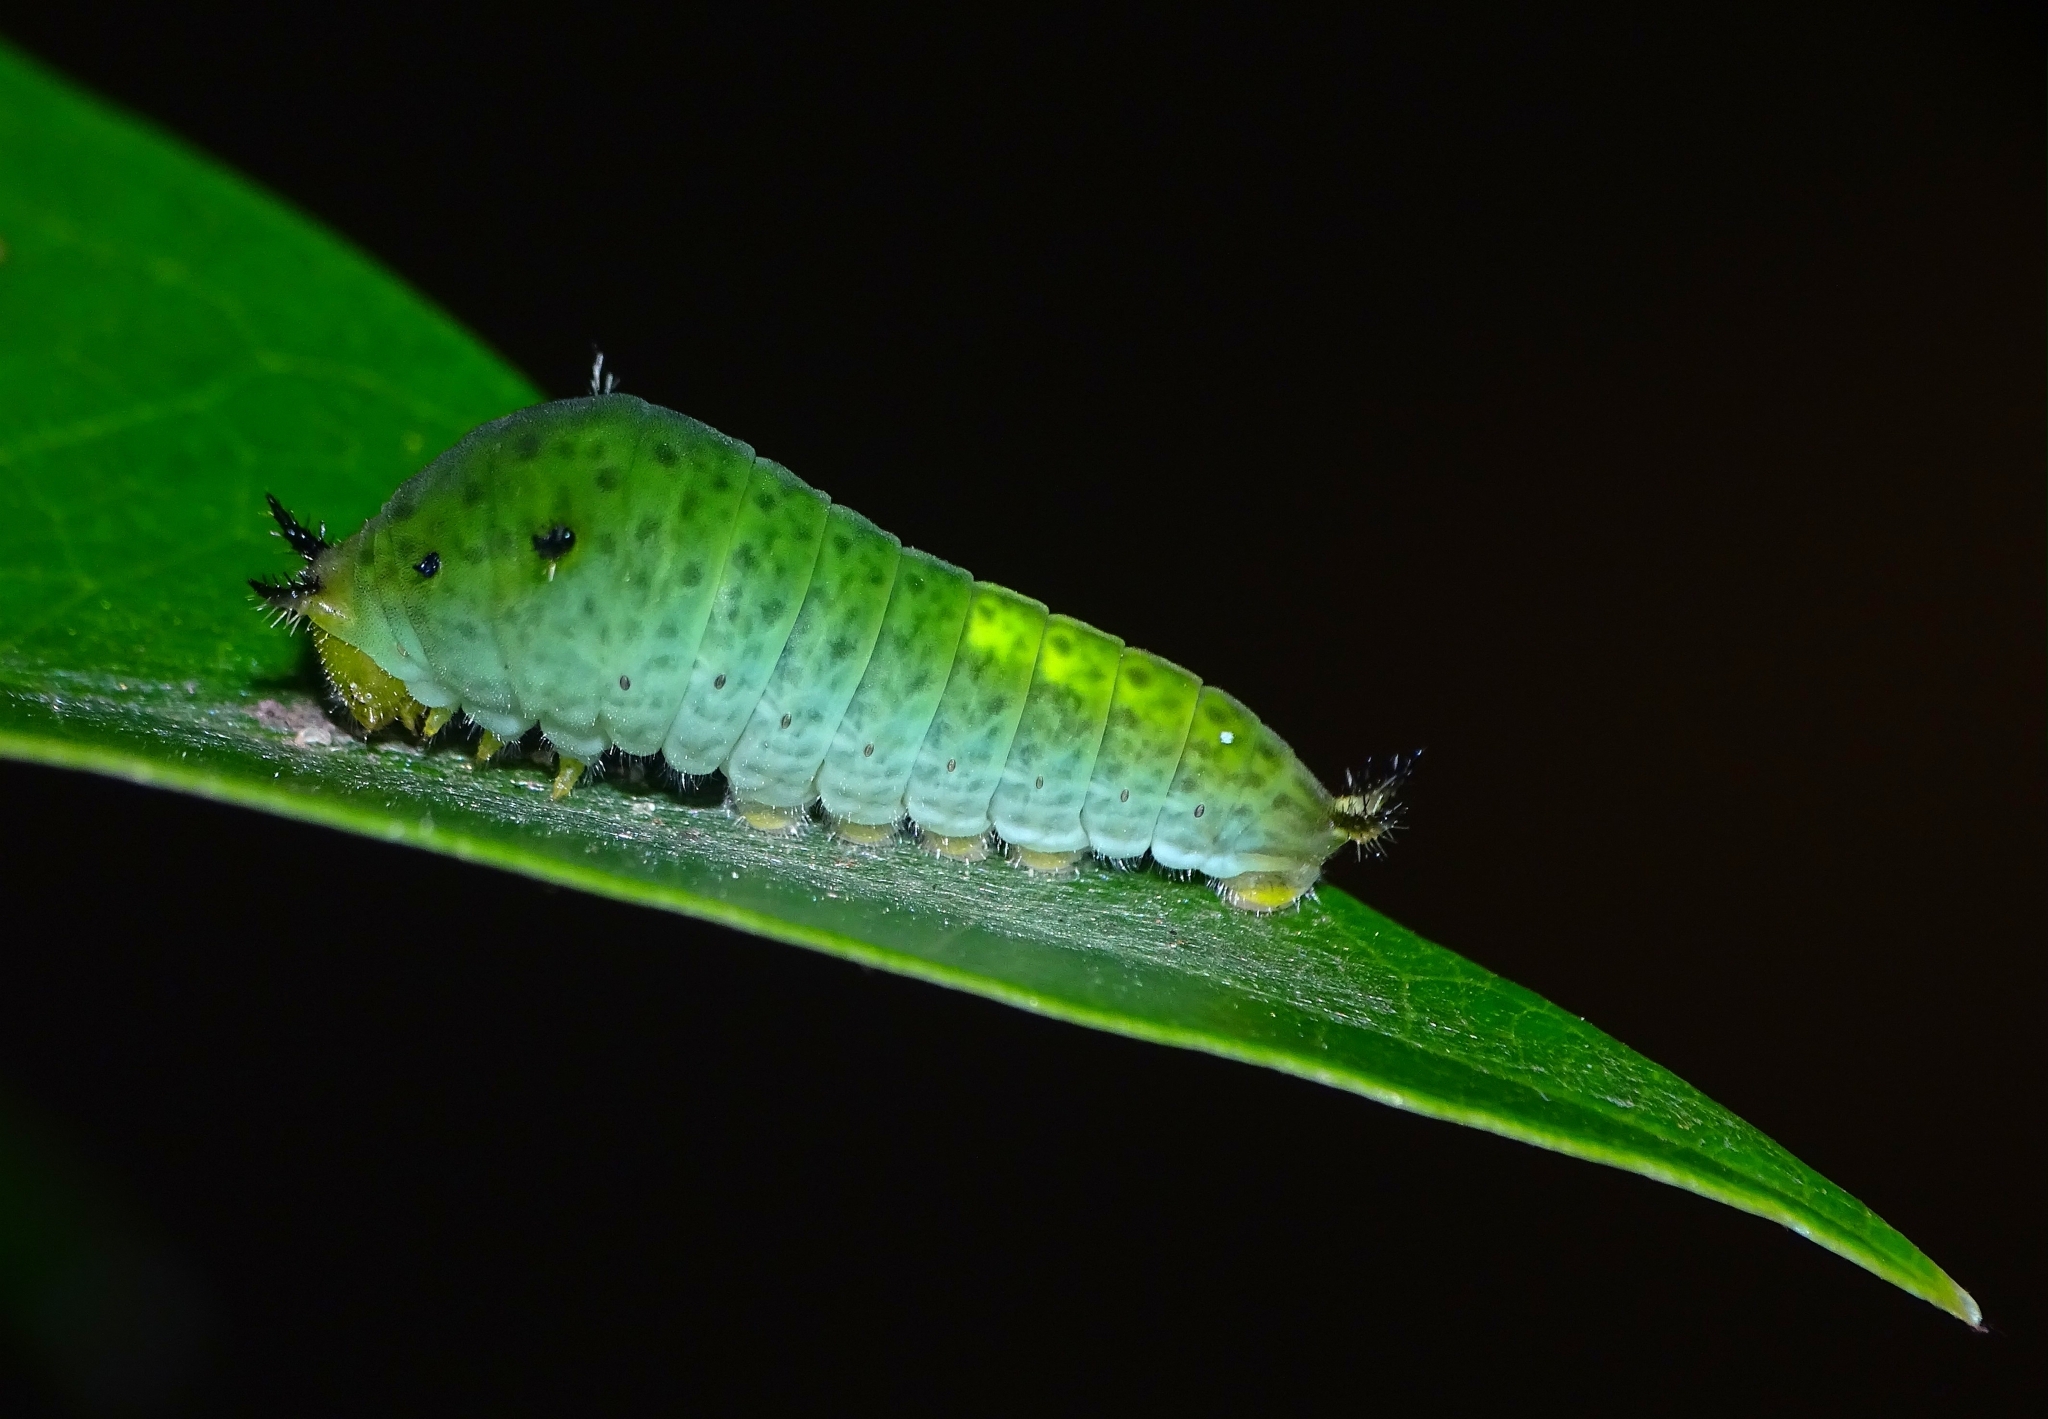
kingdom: Animalia
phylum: Arthropoda
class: Insecta
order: Lepidoptera
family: Papilionidae
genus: Graphium
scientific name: Graphium agamemnon
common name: Tailed jay
